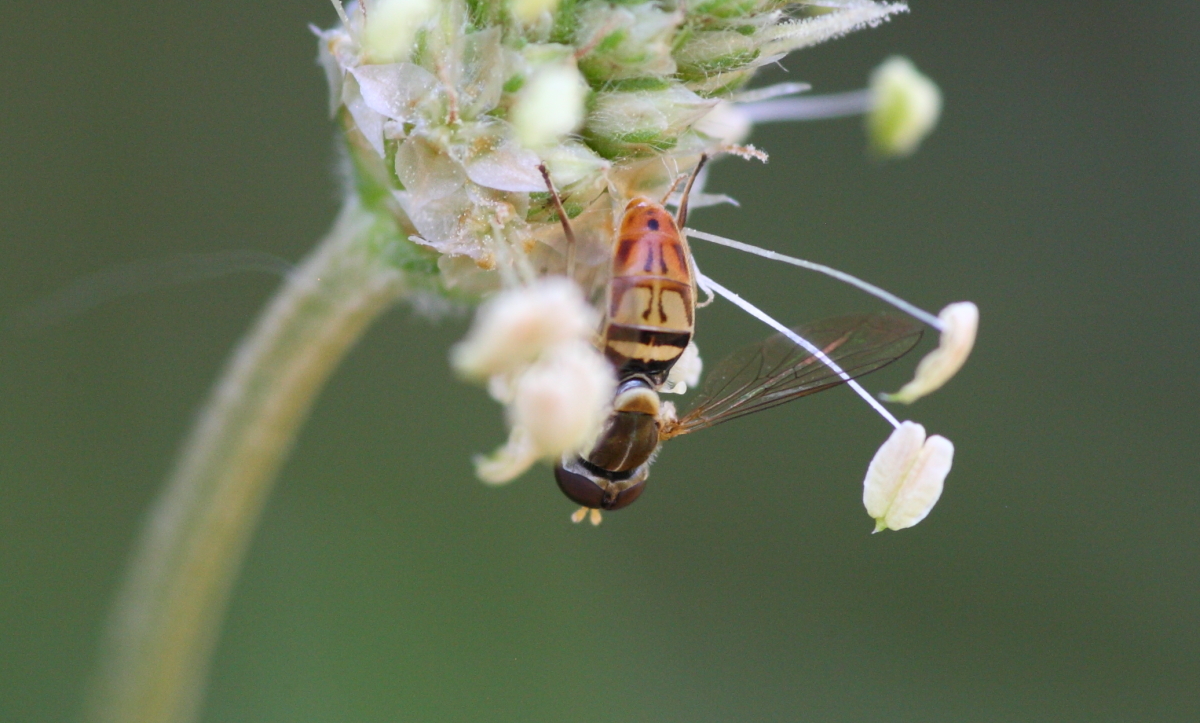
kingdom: Animalia
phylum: Arthropoda
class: Insecta
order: Diptera
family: Syrphidae
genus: Toxomerus
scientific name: Toxomerus marginatus
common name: Syrphid fly
